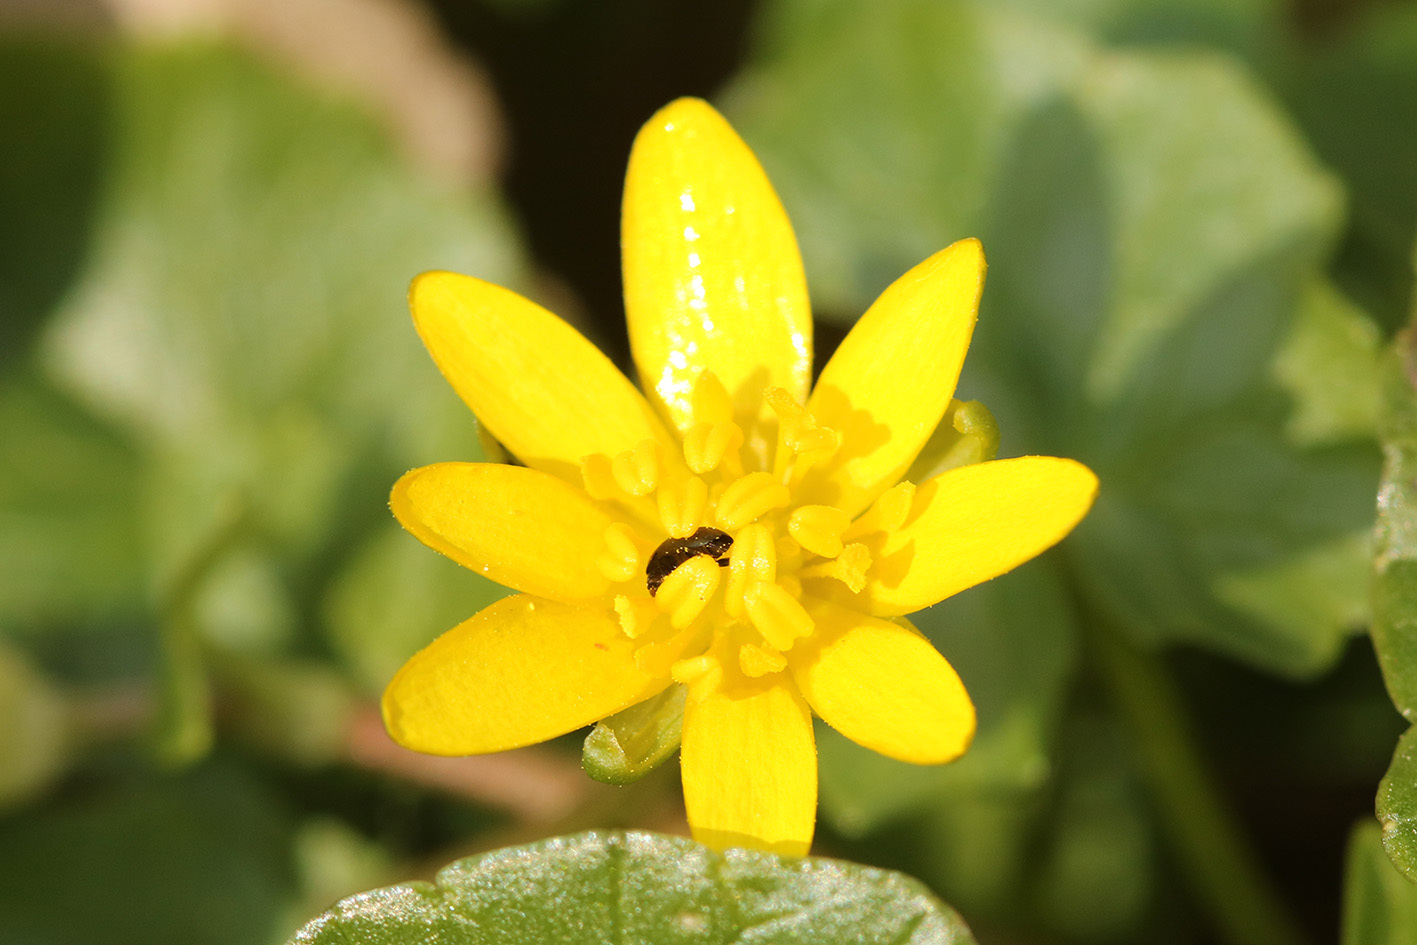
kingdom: Plantae
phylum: Tracheophyta
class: Magnoliopsida
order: Ranunculales
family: Ranunculaceae
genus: Ficaria
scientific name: Ficaria verna
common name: Lesser celandine
